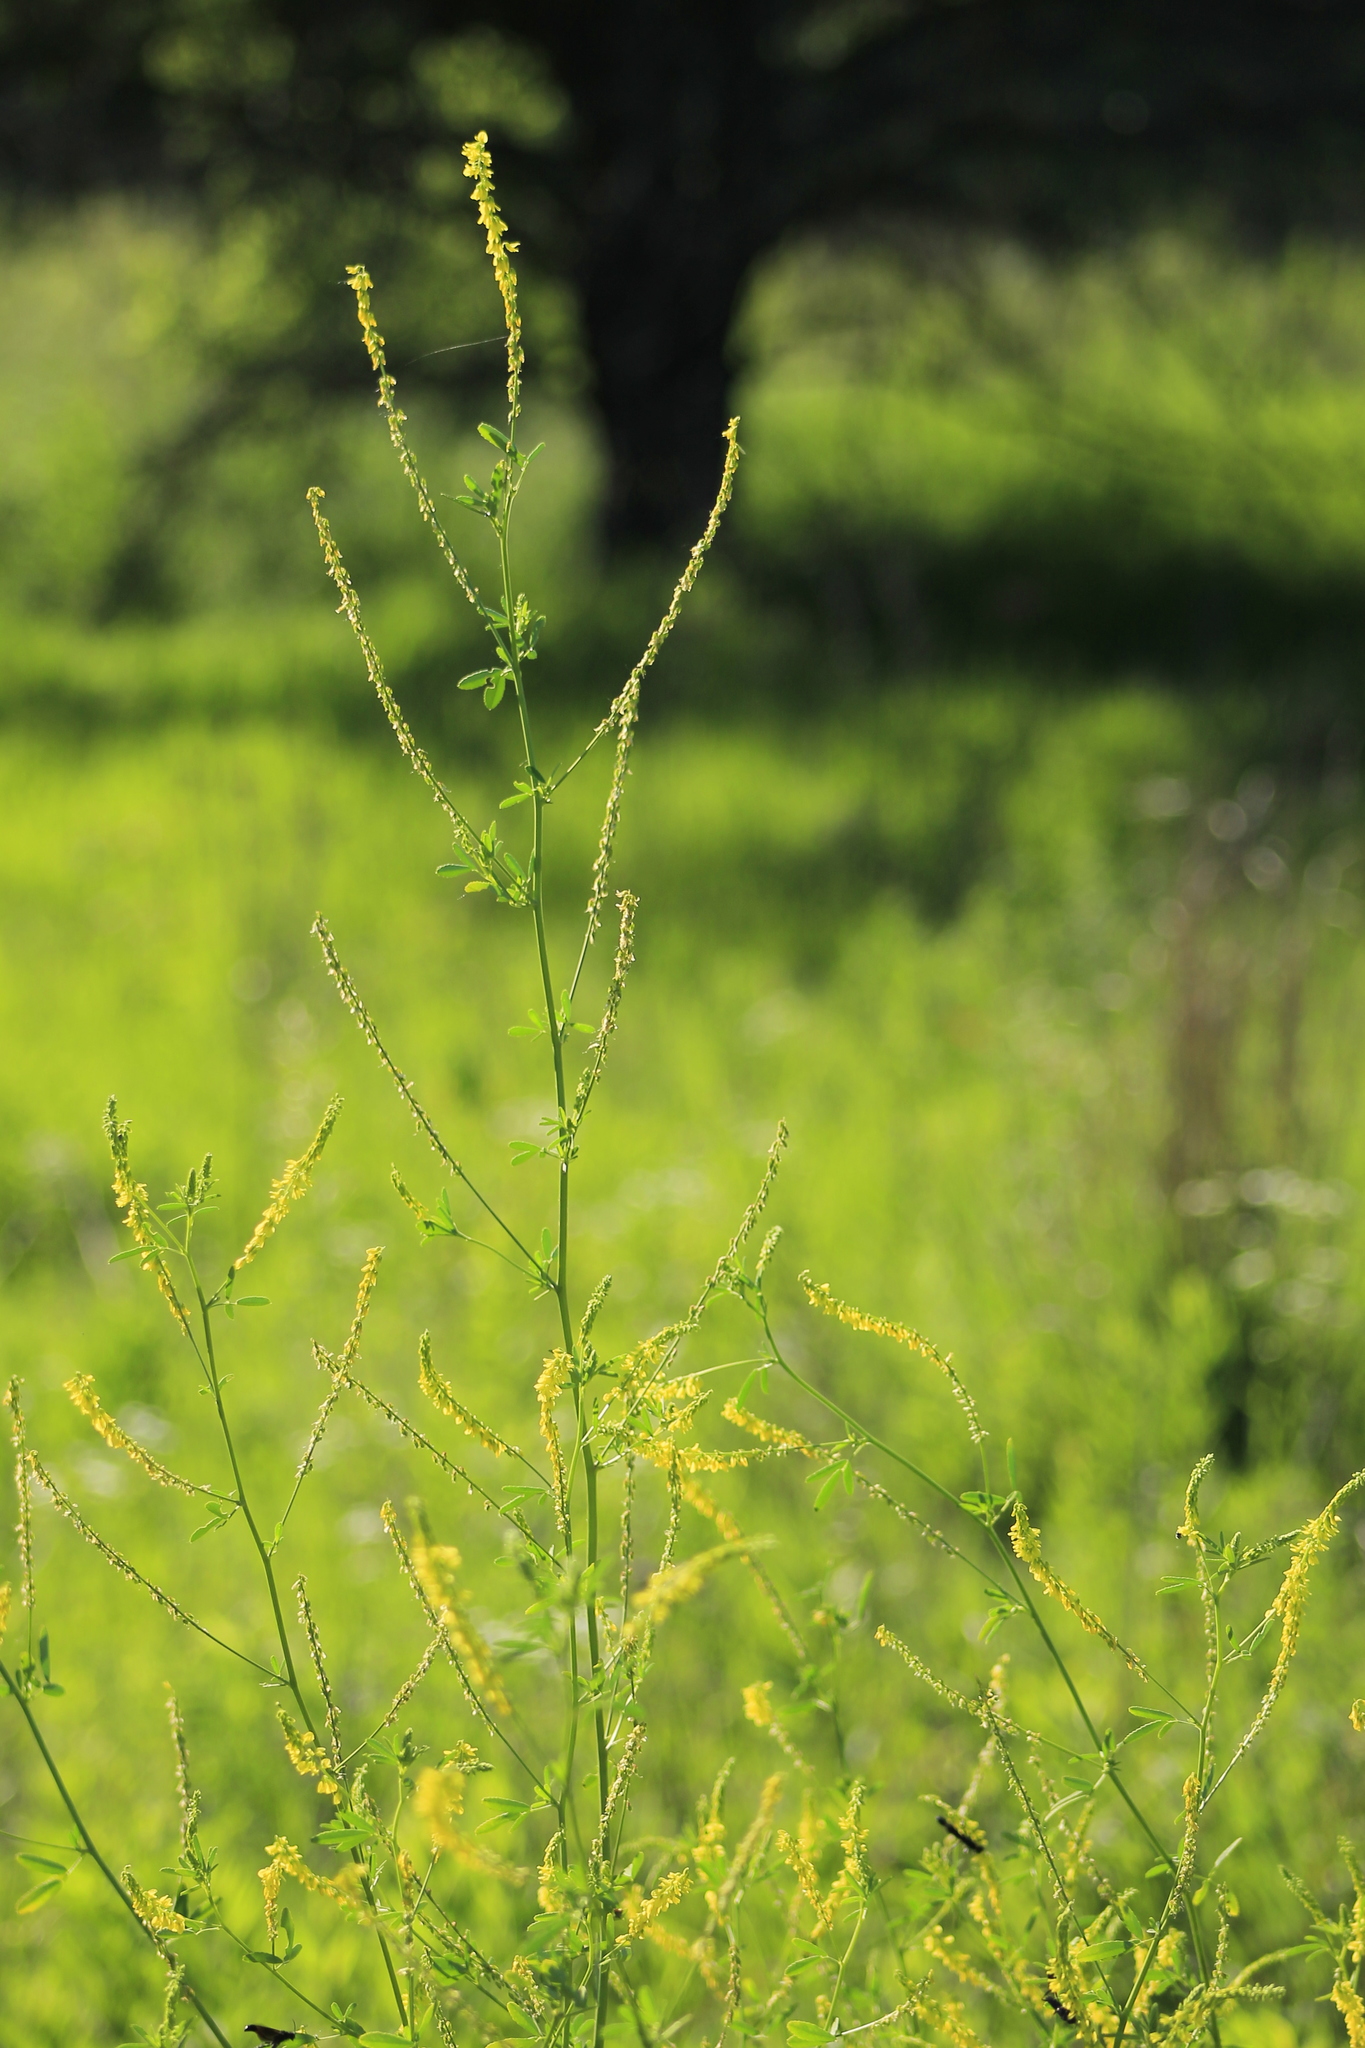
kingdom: Plantae
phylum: Tracheophyta
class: Magnoliopsida
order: Fabales
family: Fabaceae
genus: Melilotus
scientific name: Melilotus officinalis
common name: Sweetclover
